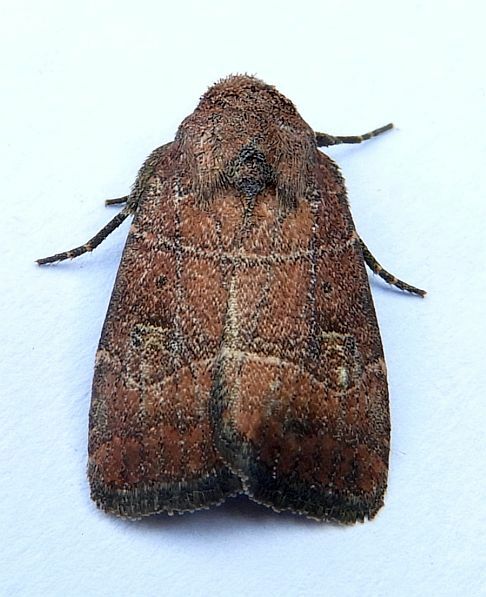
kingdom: Animalia
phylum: Arthropoda
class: Insecta
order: Lepidoptera
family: Noctuidae
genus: Elaphria
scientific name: Elaphria grata
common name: Grateful midget moth
